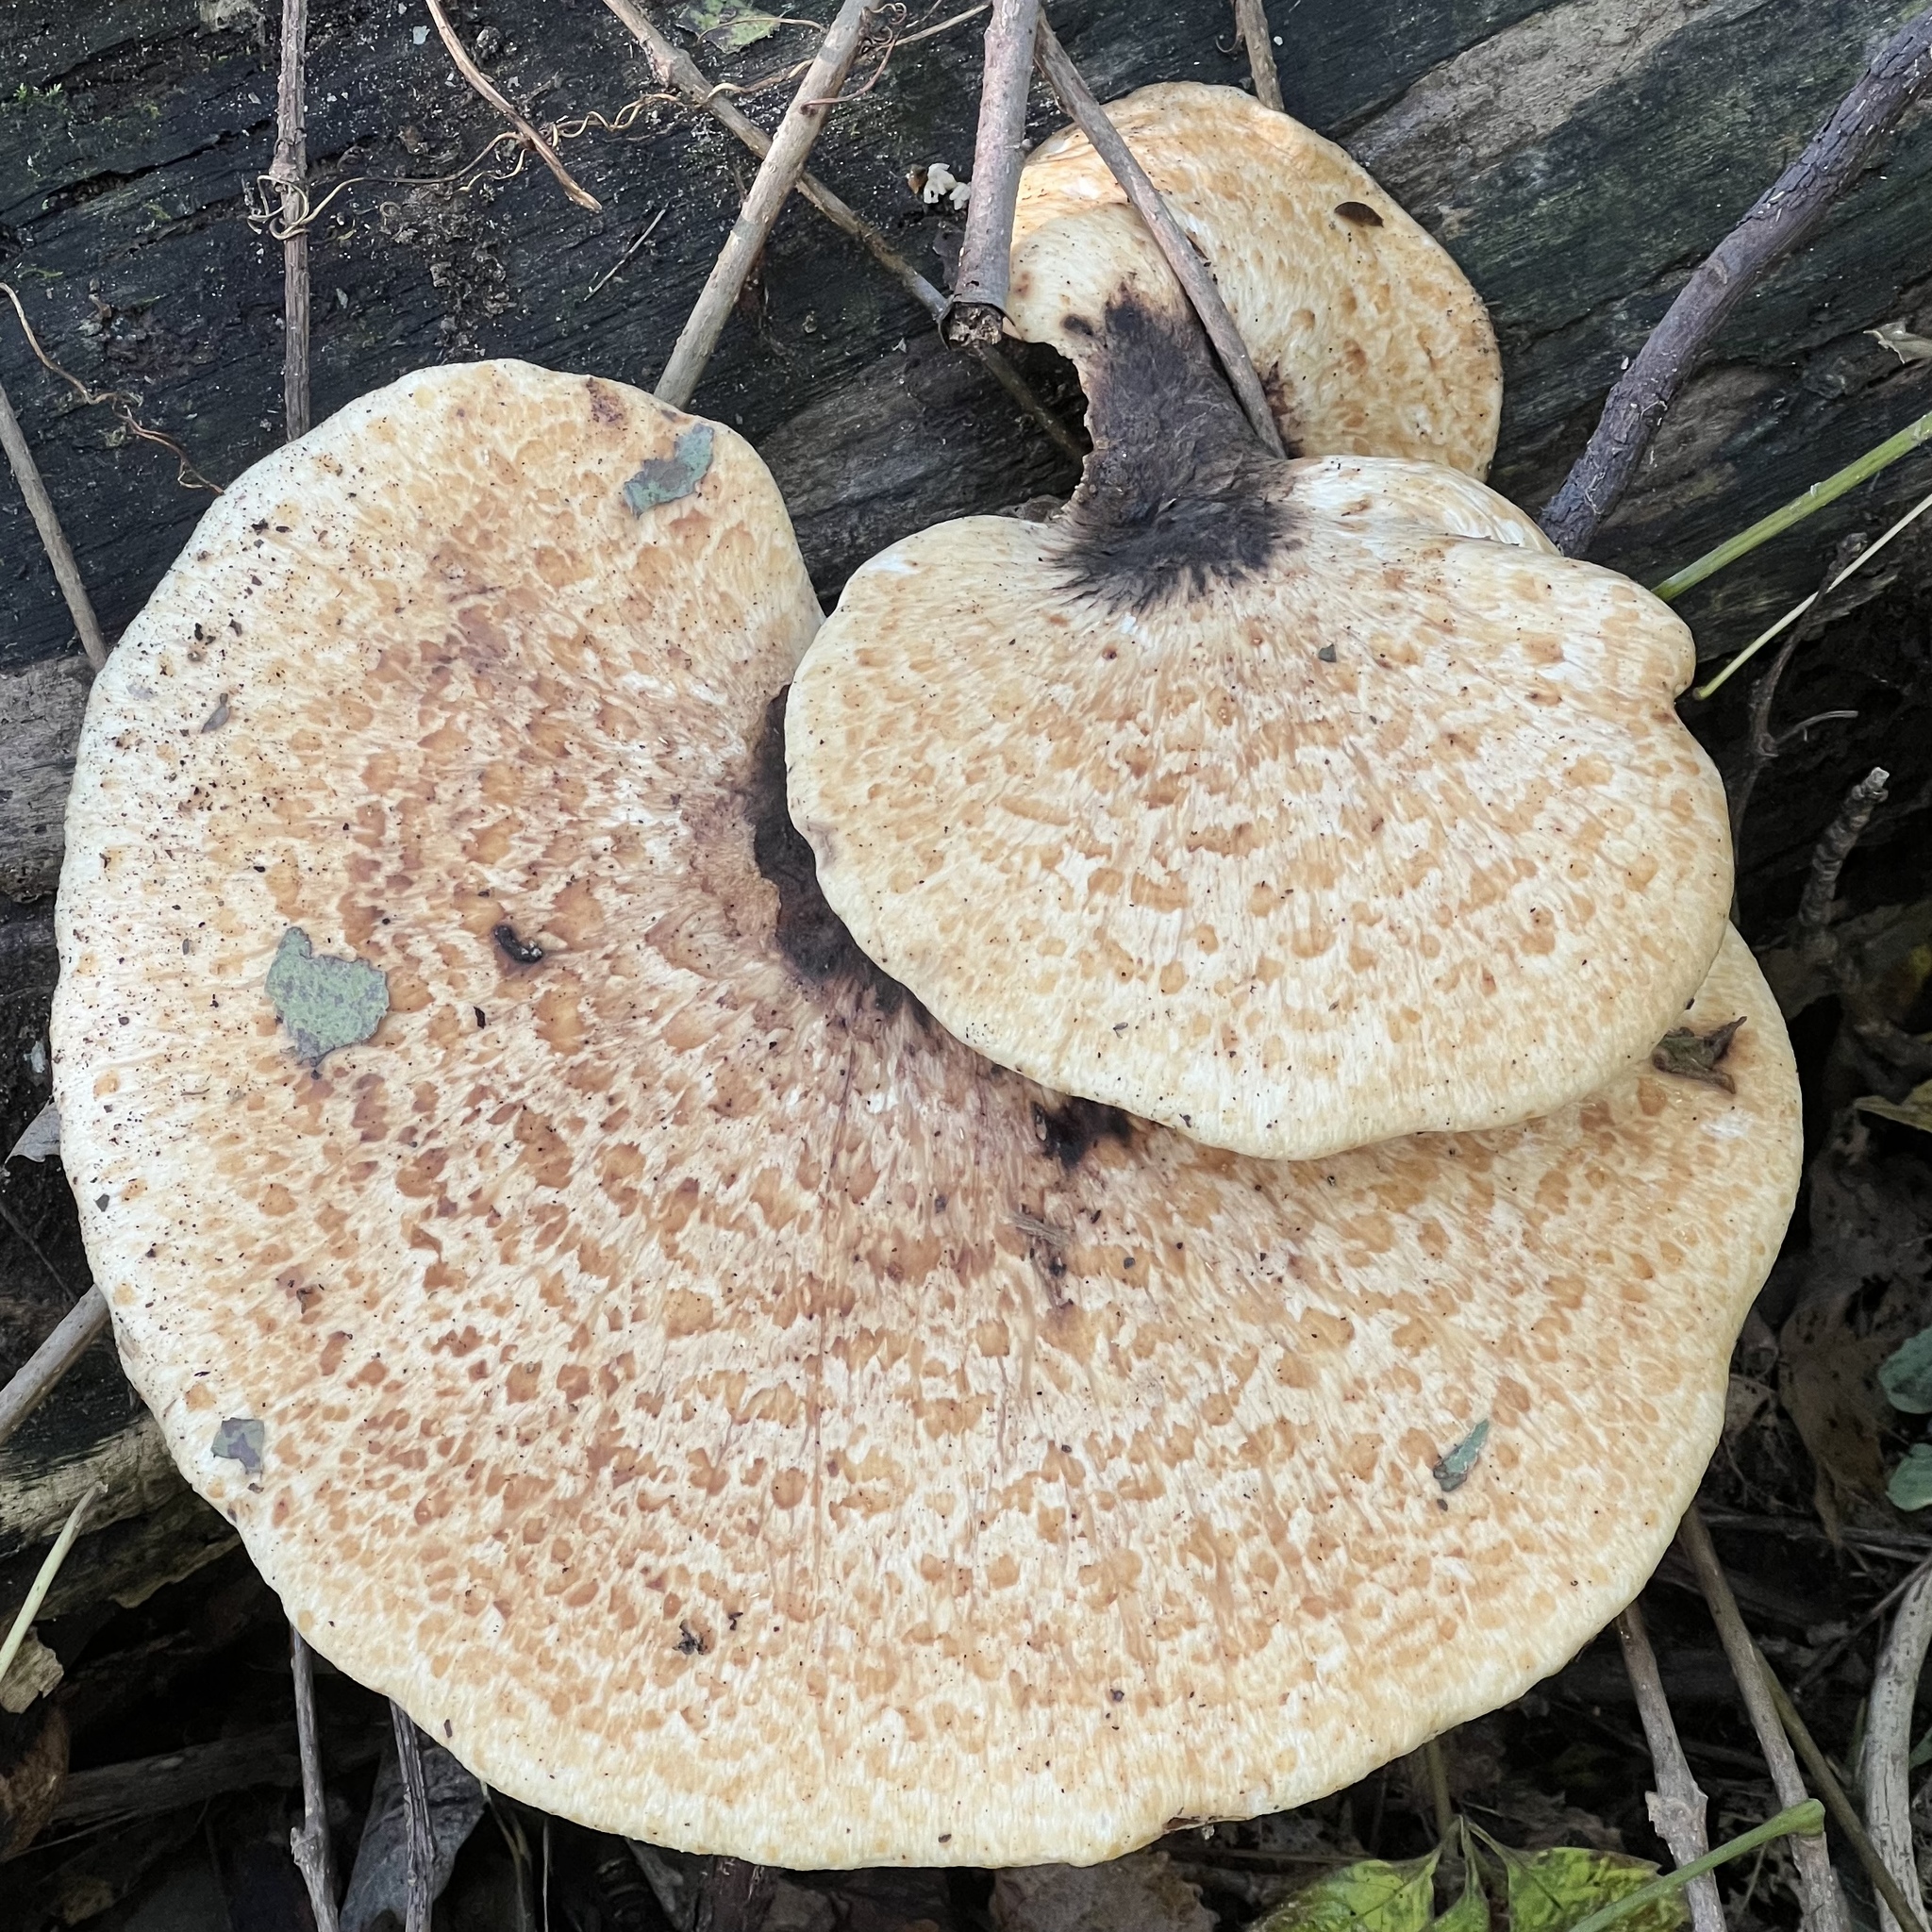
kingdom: Fungi
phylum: Basidiomycota
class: Agaricomycetes
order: Polyporales
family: Polyporaceae
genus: Cerioporus
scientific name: Cerioporus squamosus
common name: Dryad's saddle
